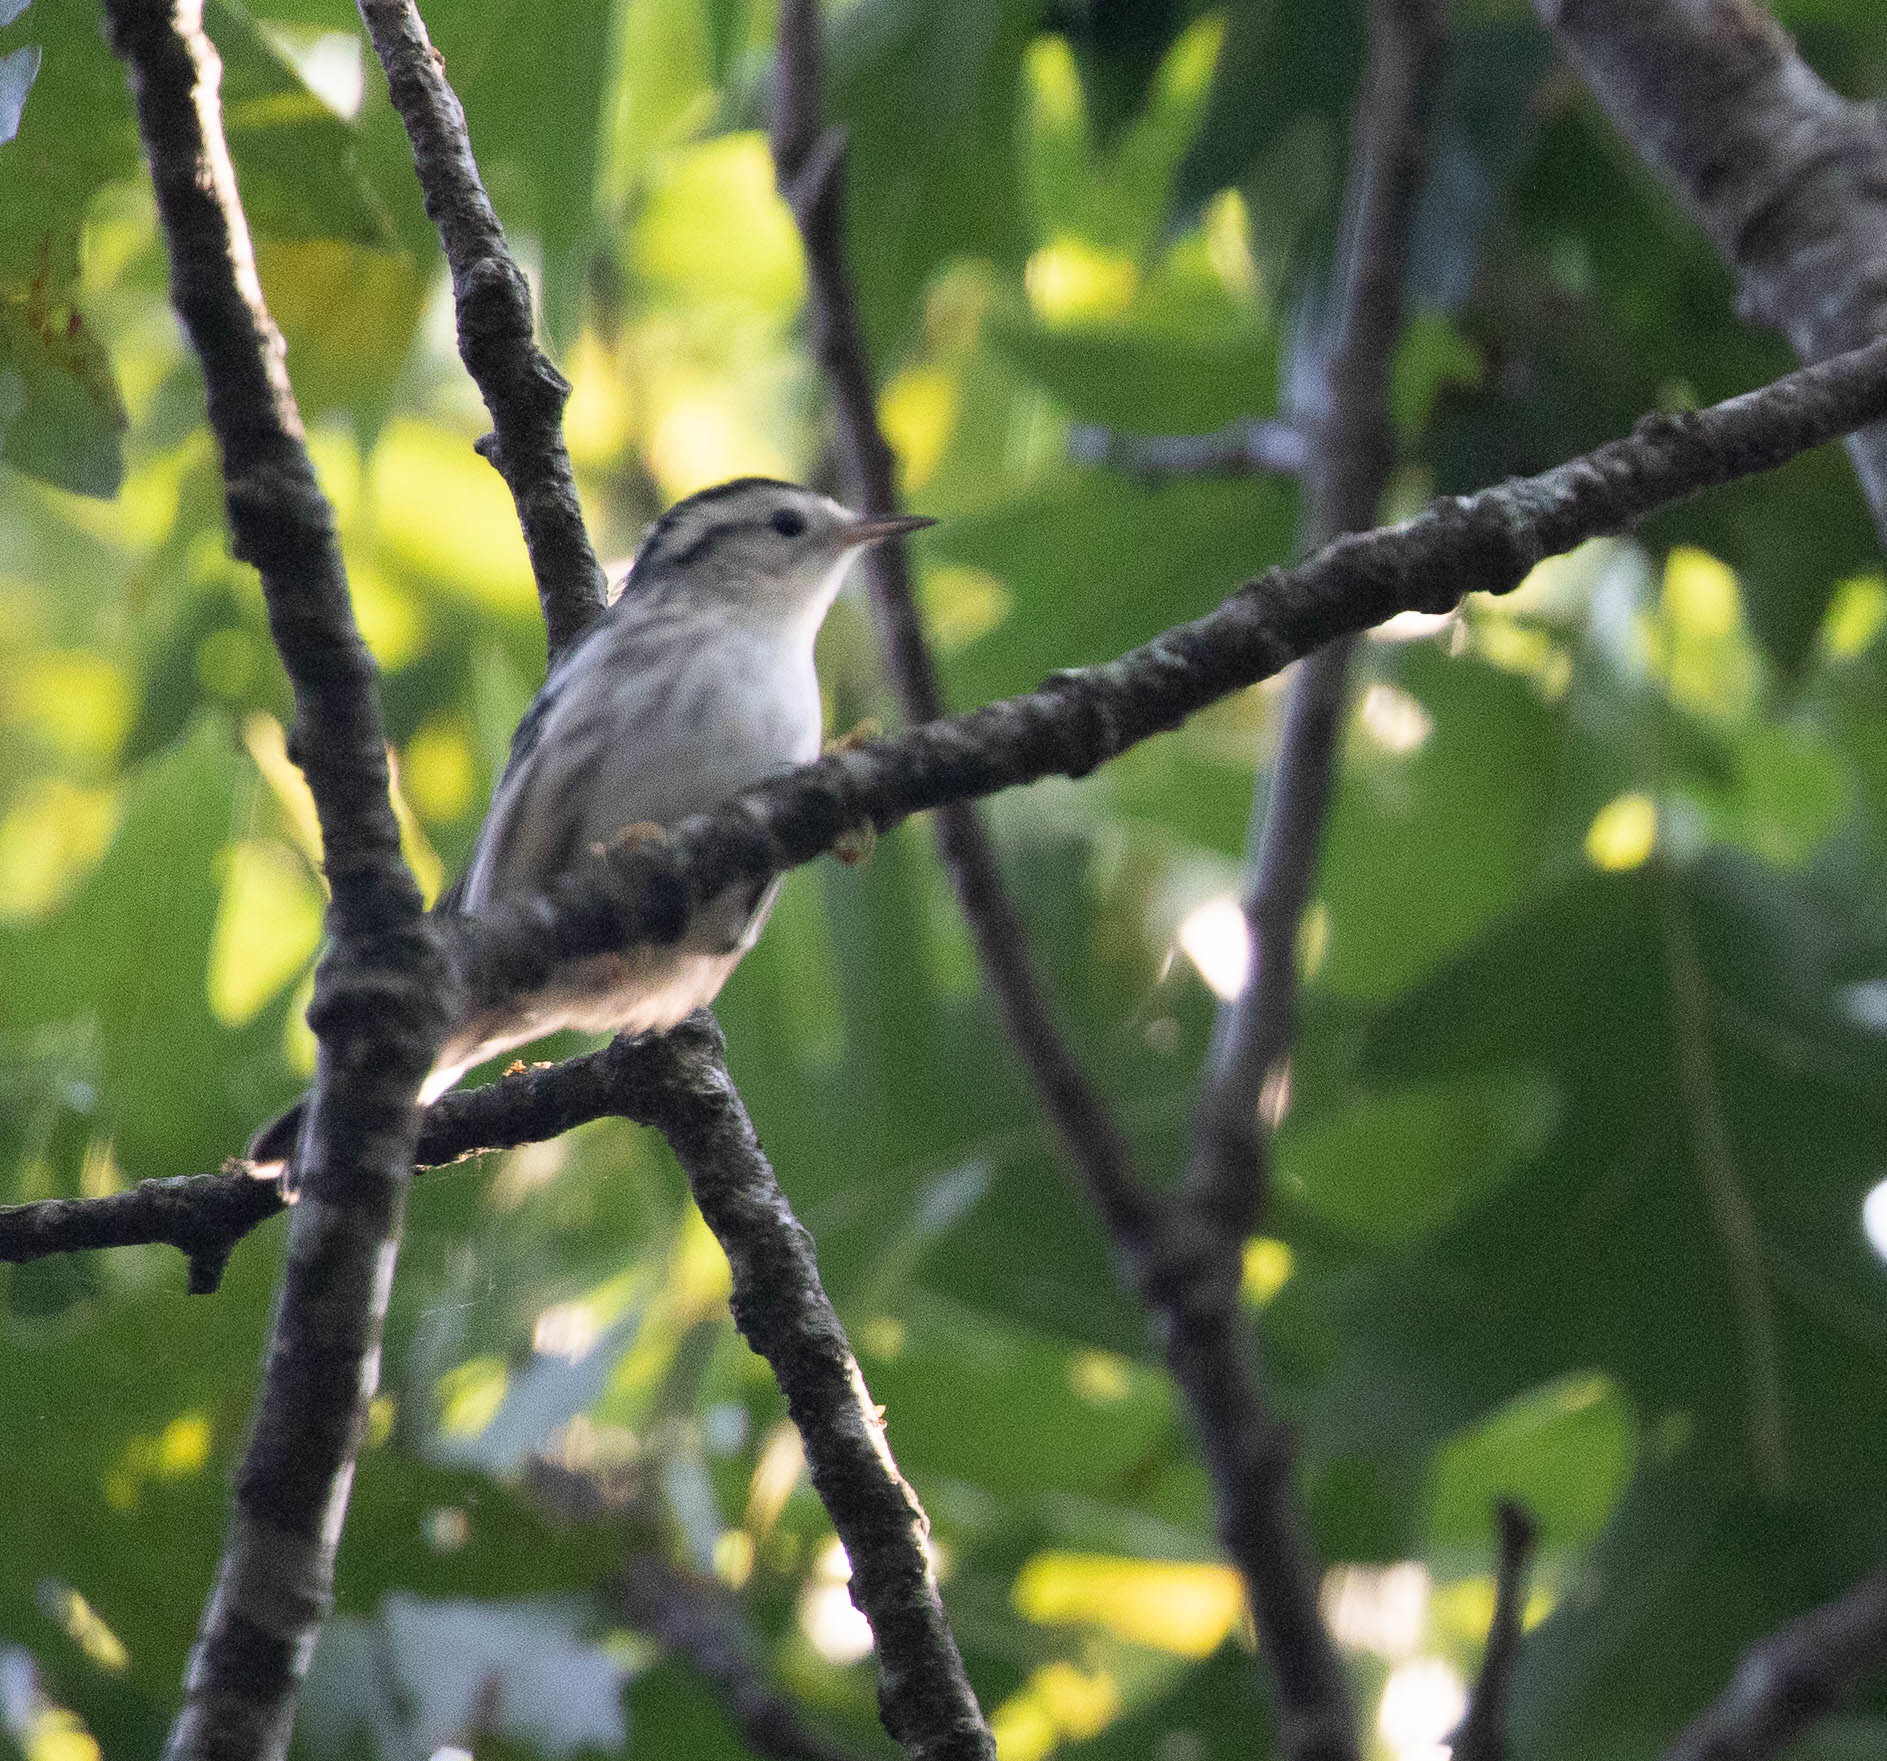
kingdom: Animalia
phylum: Chordata
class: Aves
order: Passeriformes
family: Parulidae
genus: Mniotilta
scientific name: Mniotilta varia
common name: Black-and-white warbler
